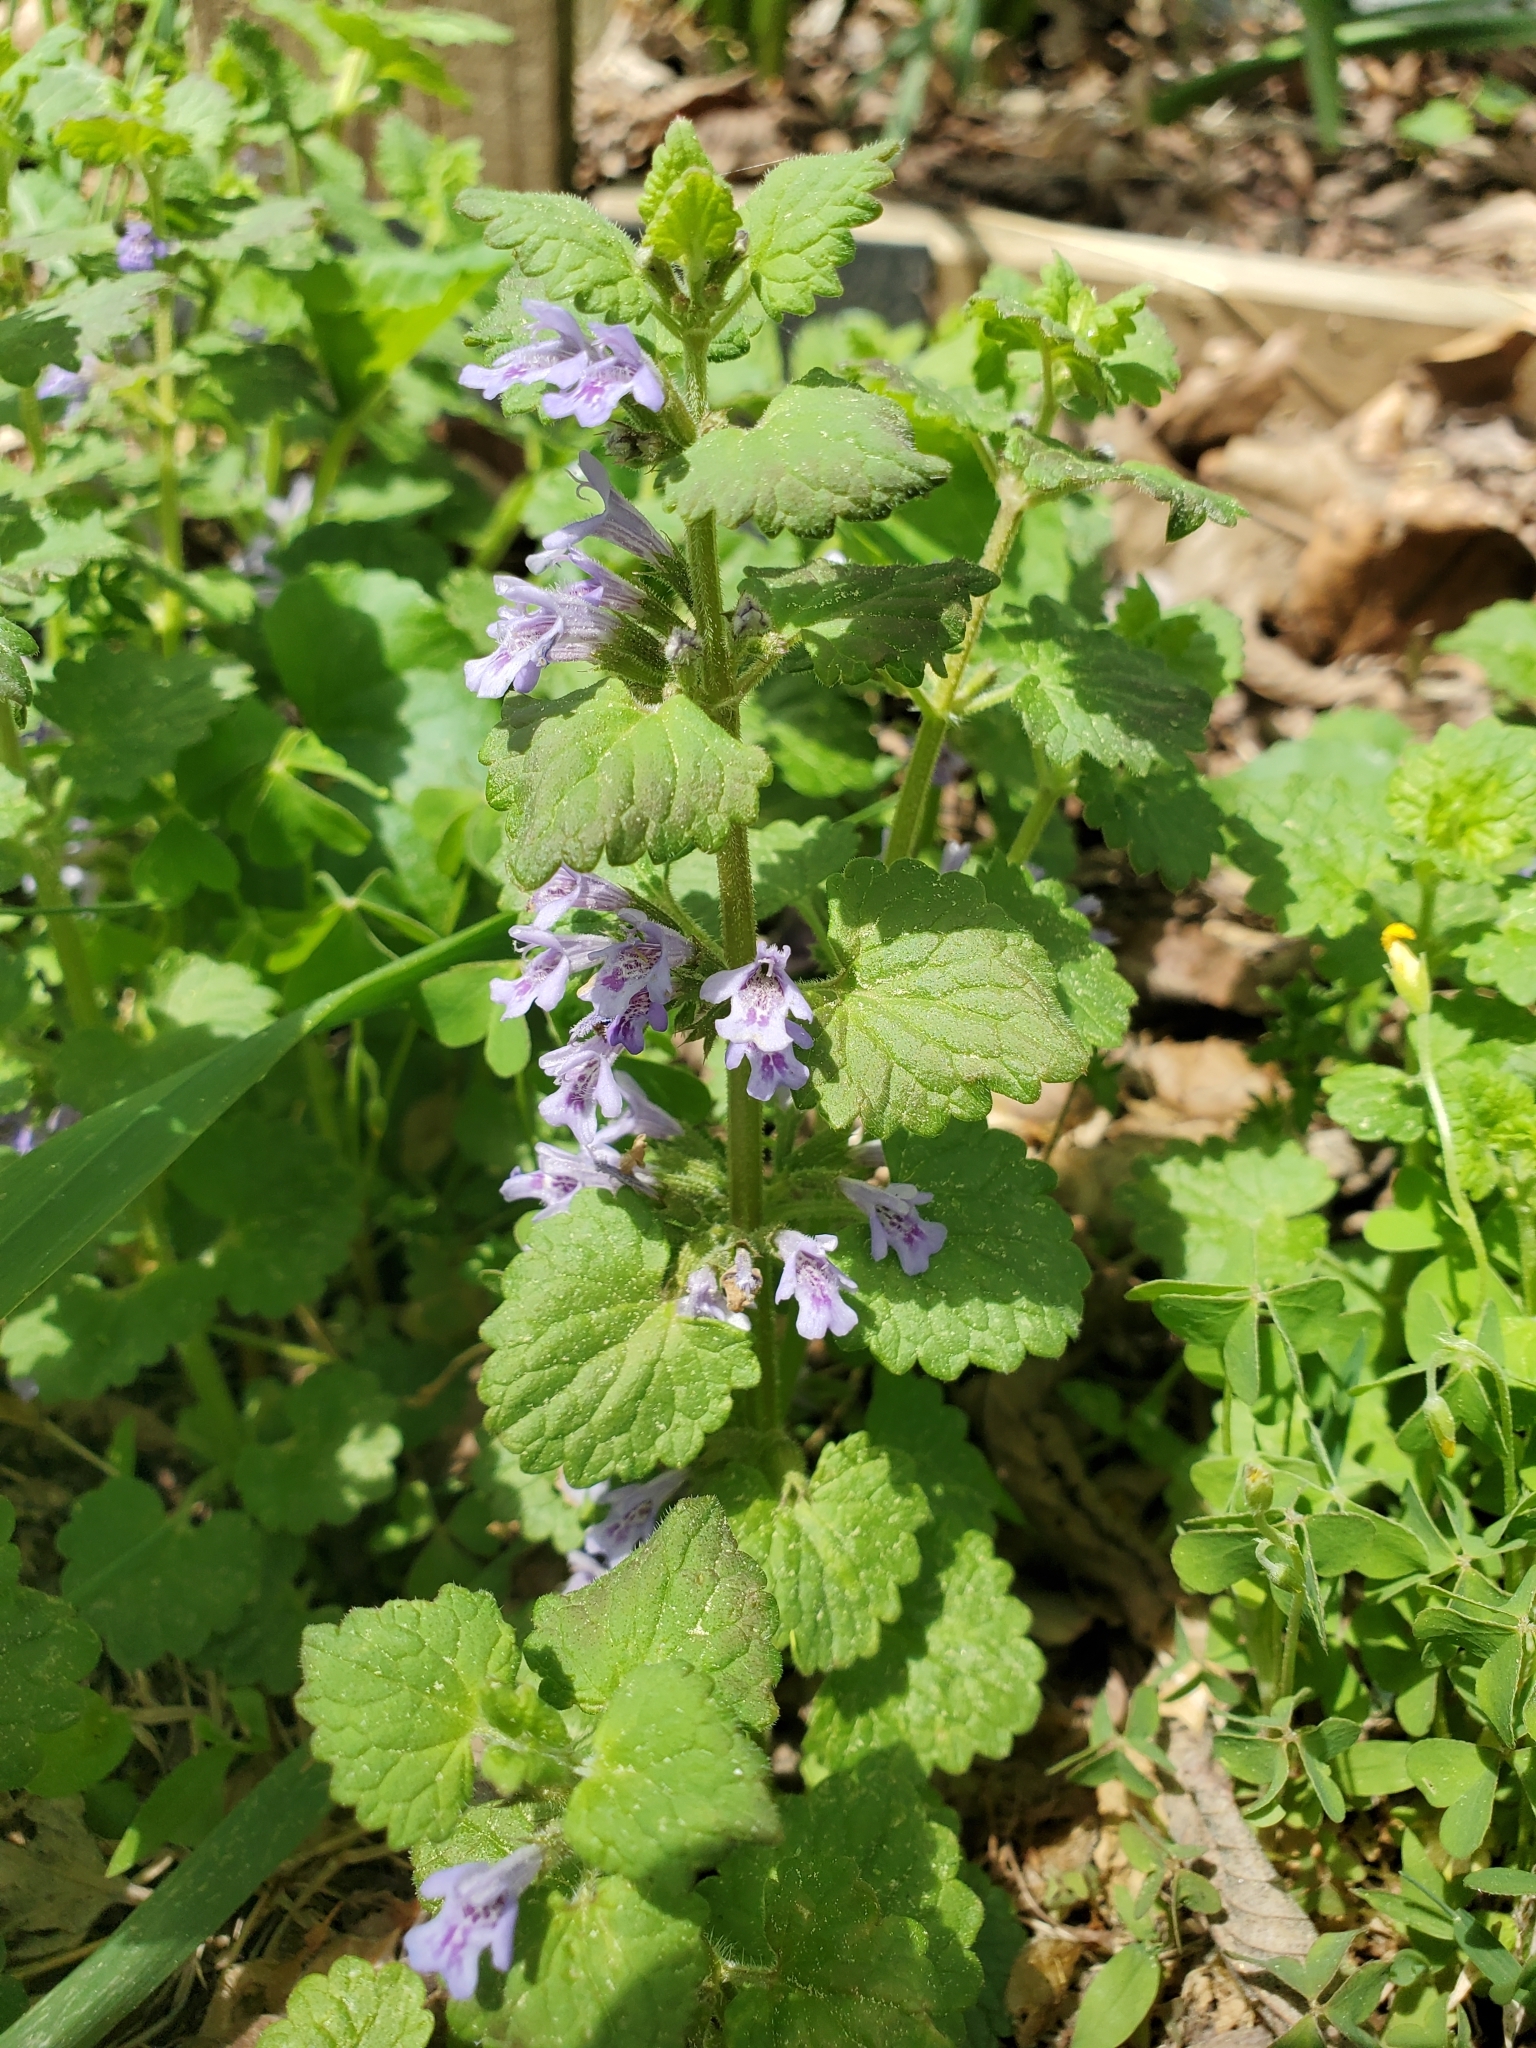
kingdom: Plantae
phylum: Tracheophyta
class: Magnoliopsida
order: Lamiales
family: Lamiaceae
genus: Glechoma
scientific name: Glechoma hederacea
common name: Ground ivy
